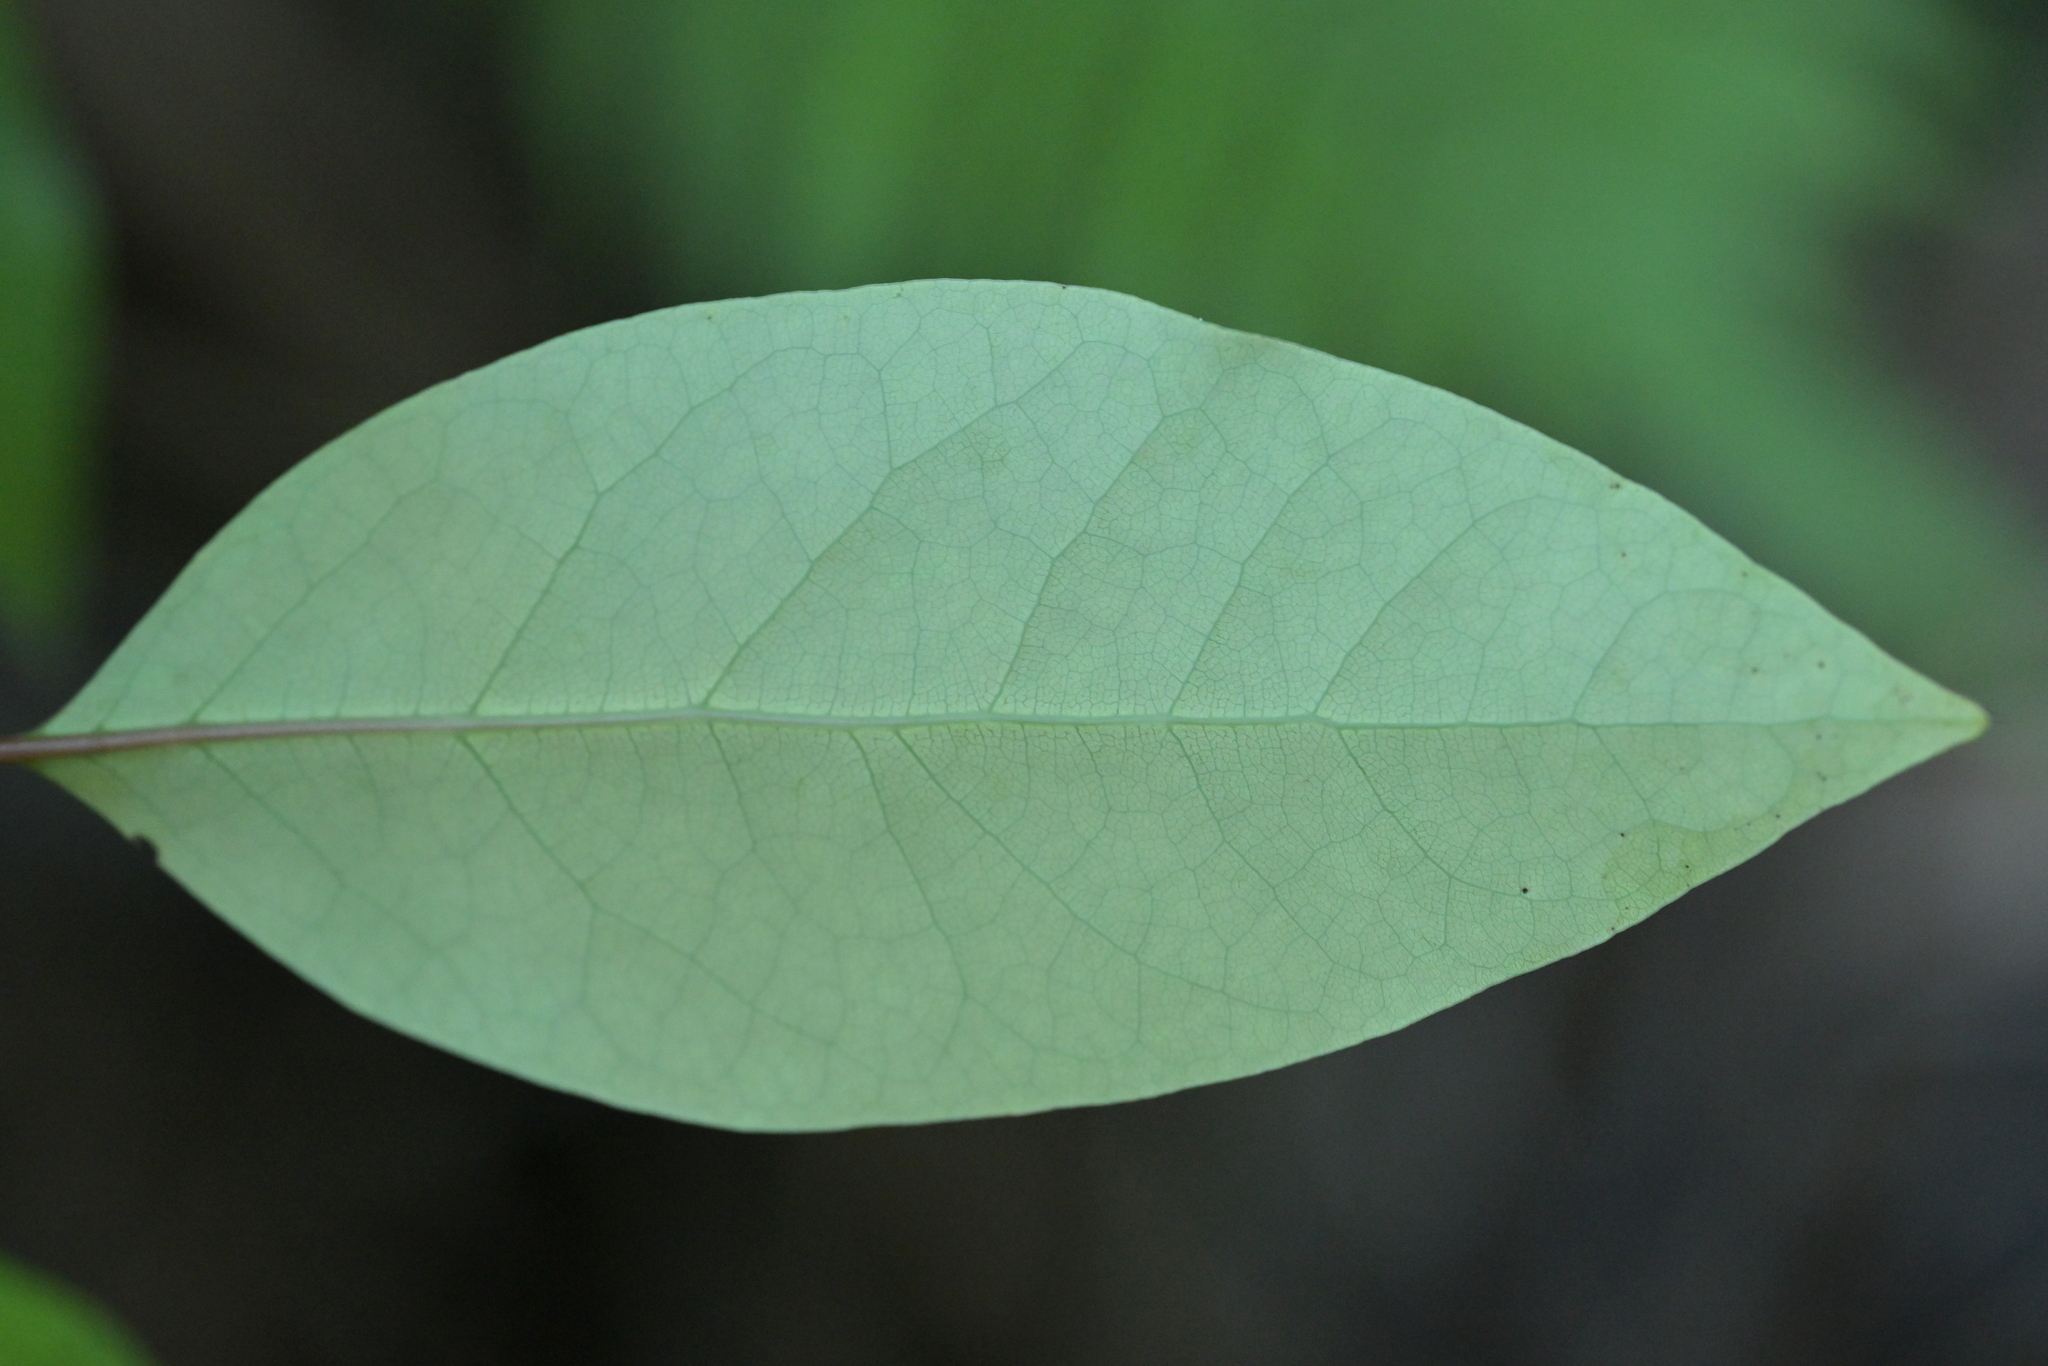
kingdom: Plantae
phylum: Tracheophyta
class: Magnoliopsida
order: Laurales
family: Lauraceae
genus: Litsea
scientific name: Litsea calicaris
